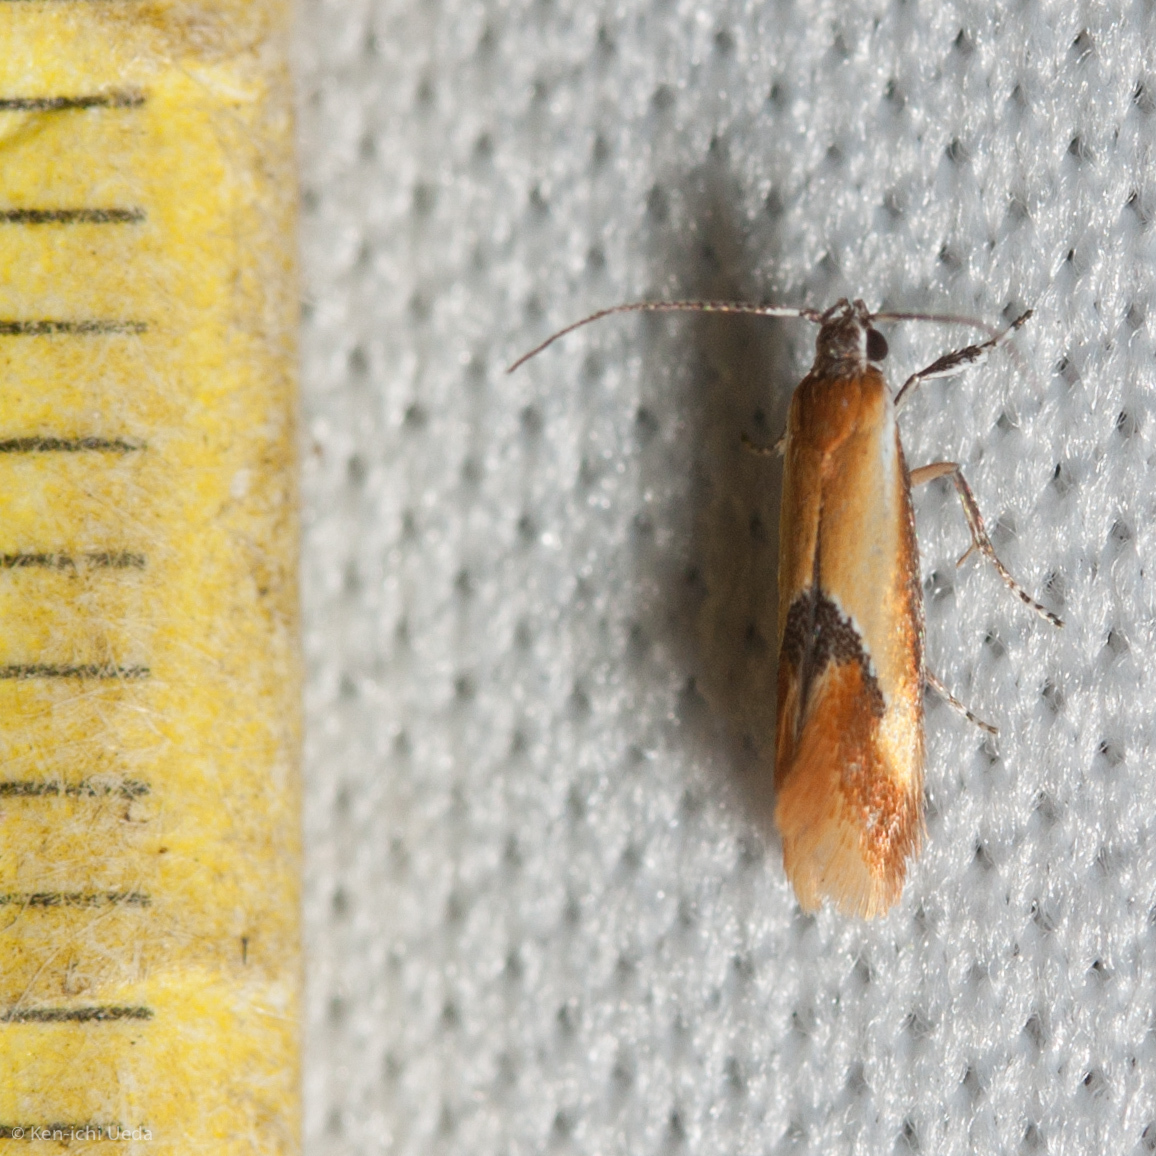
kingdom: Animalia
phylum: Arthropoda
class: Insecta
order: Lepidoptera
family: Oecophoridae
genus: Batia
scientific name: Batia lunaris
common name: Moth
